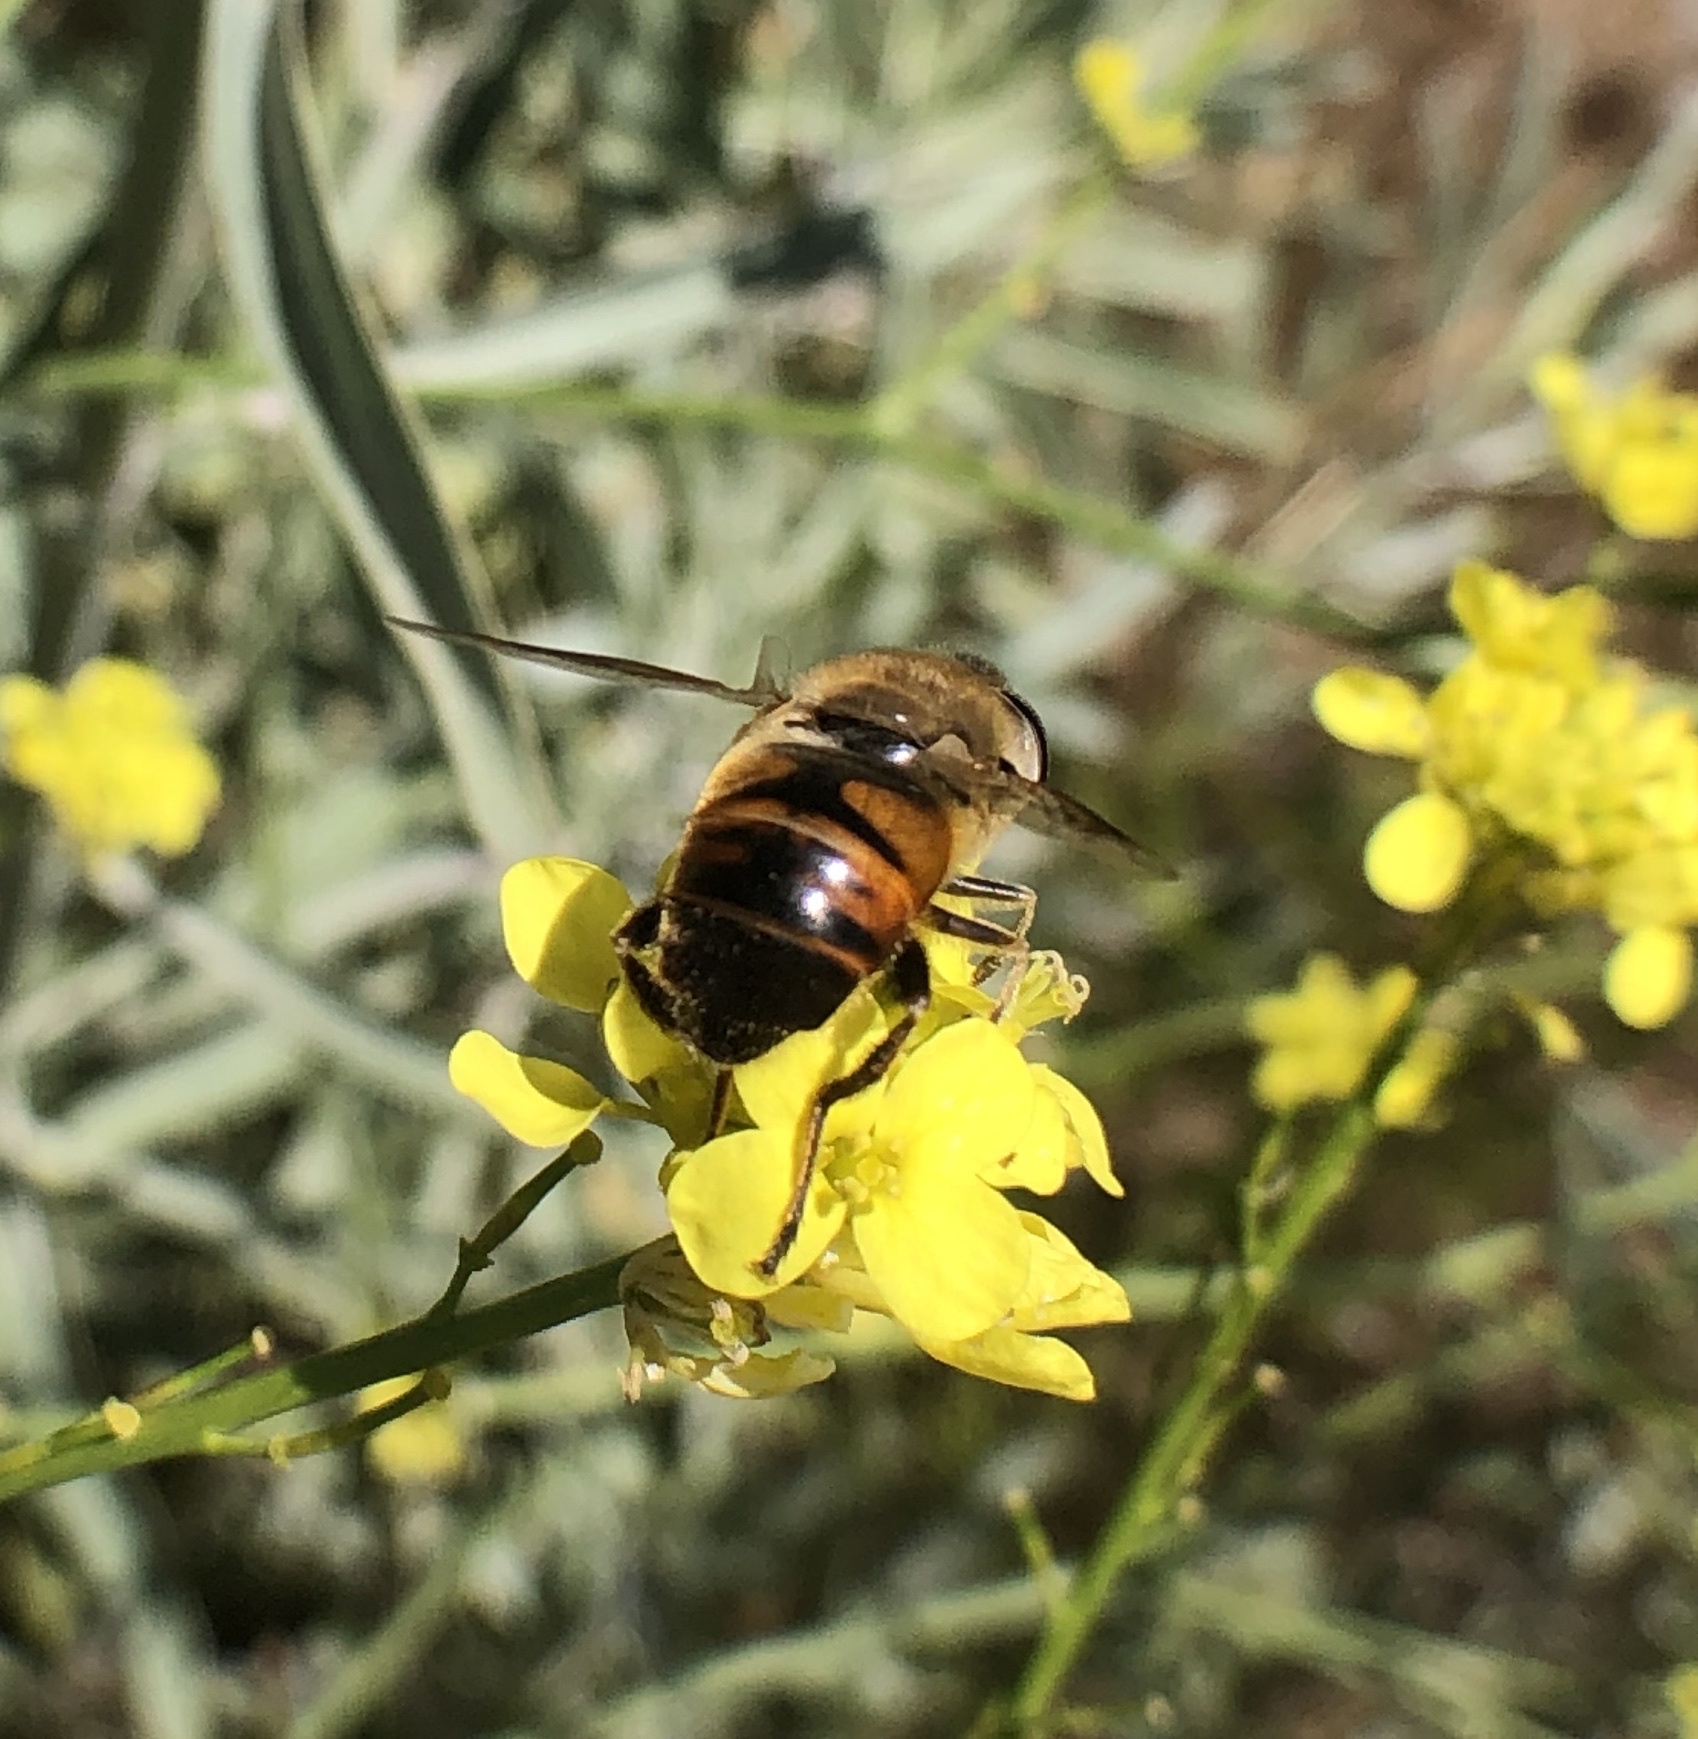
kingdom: Animalia
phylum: Arthropoda
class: Insecta
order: Diptera
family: Syrphidae
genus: Eristalis
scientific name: Eristalis tenax
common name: Drone fly
